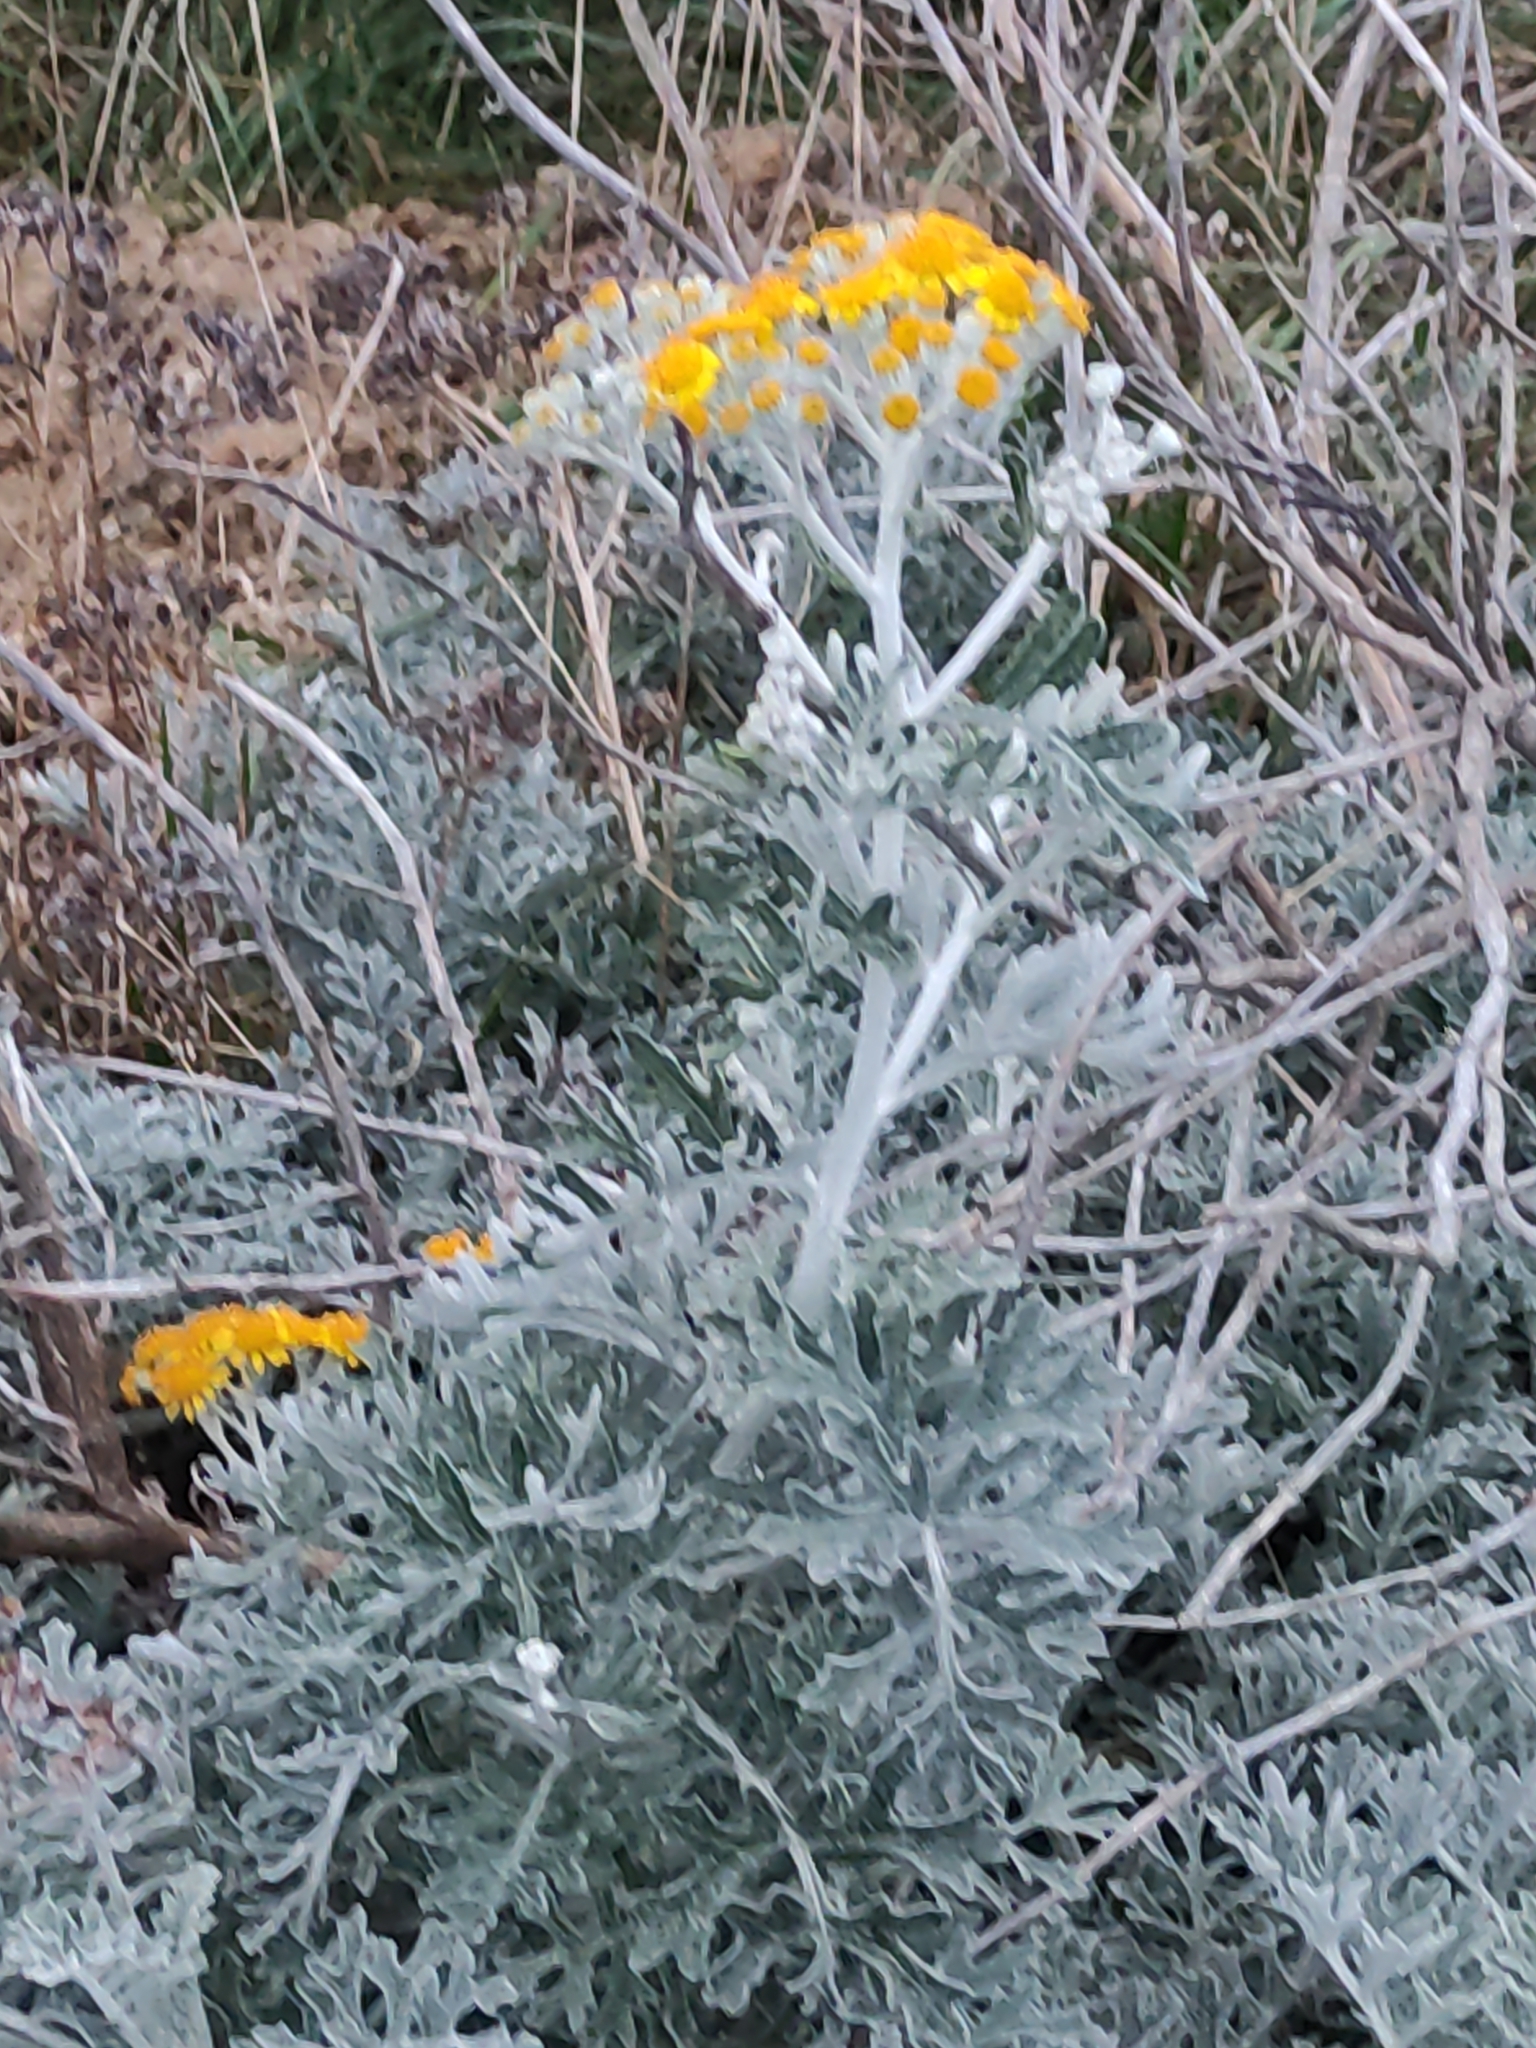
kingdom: Plantae
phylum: Tracheophyta
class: Magnoliopsida
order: Asterales
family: Asteraceae
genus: Jacobaea
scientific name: Jacobaea maritima
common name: Silver ragwort
